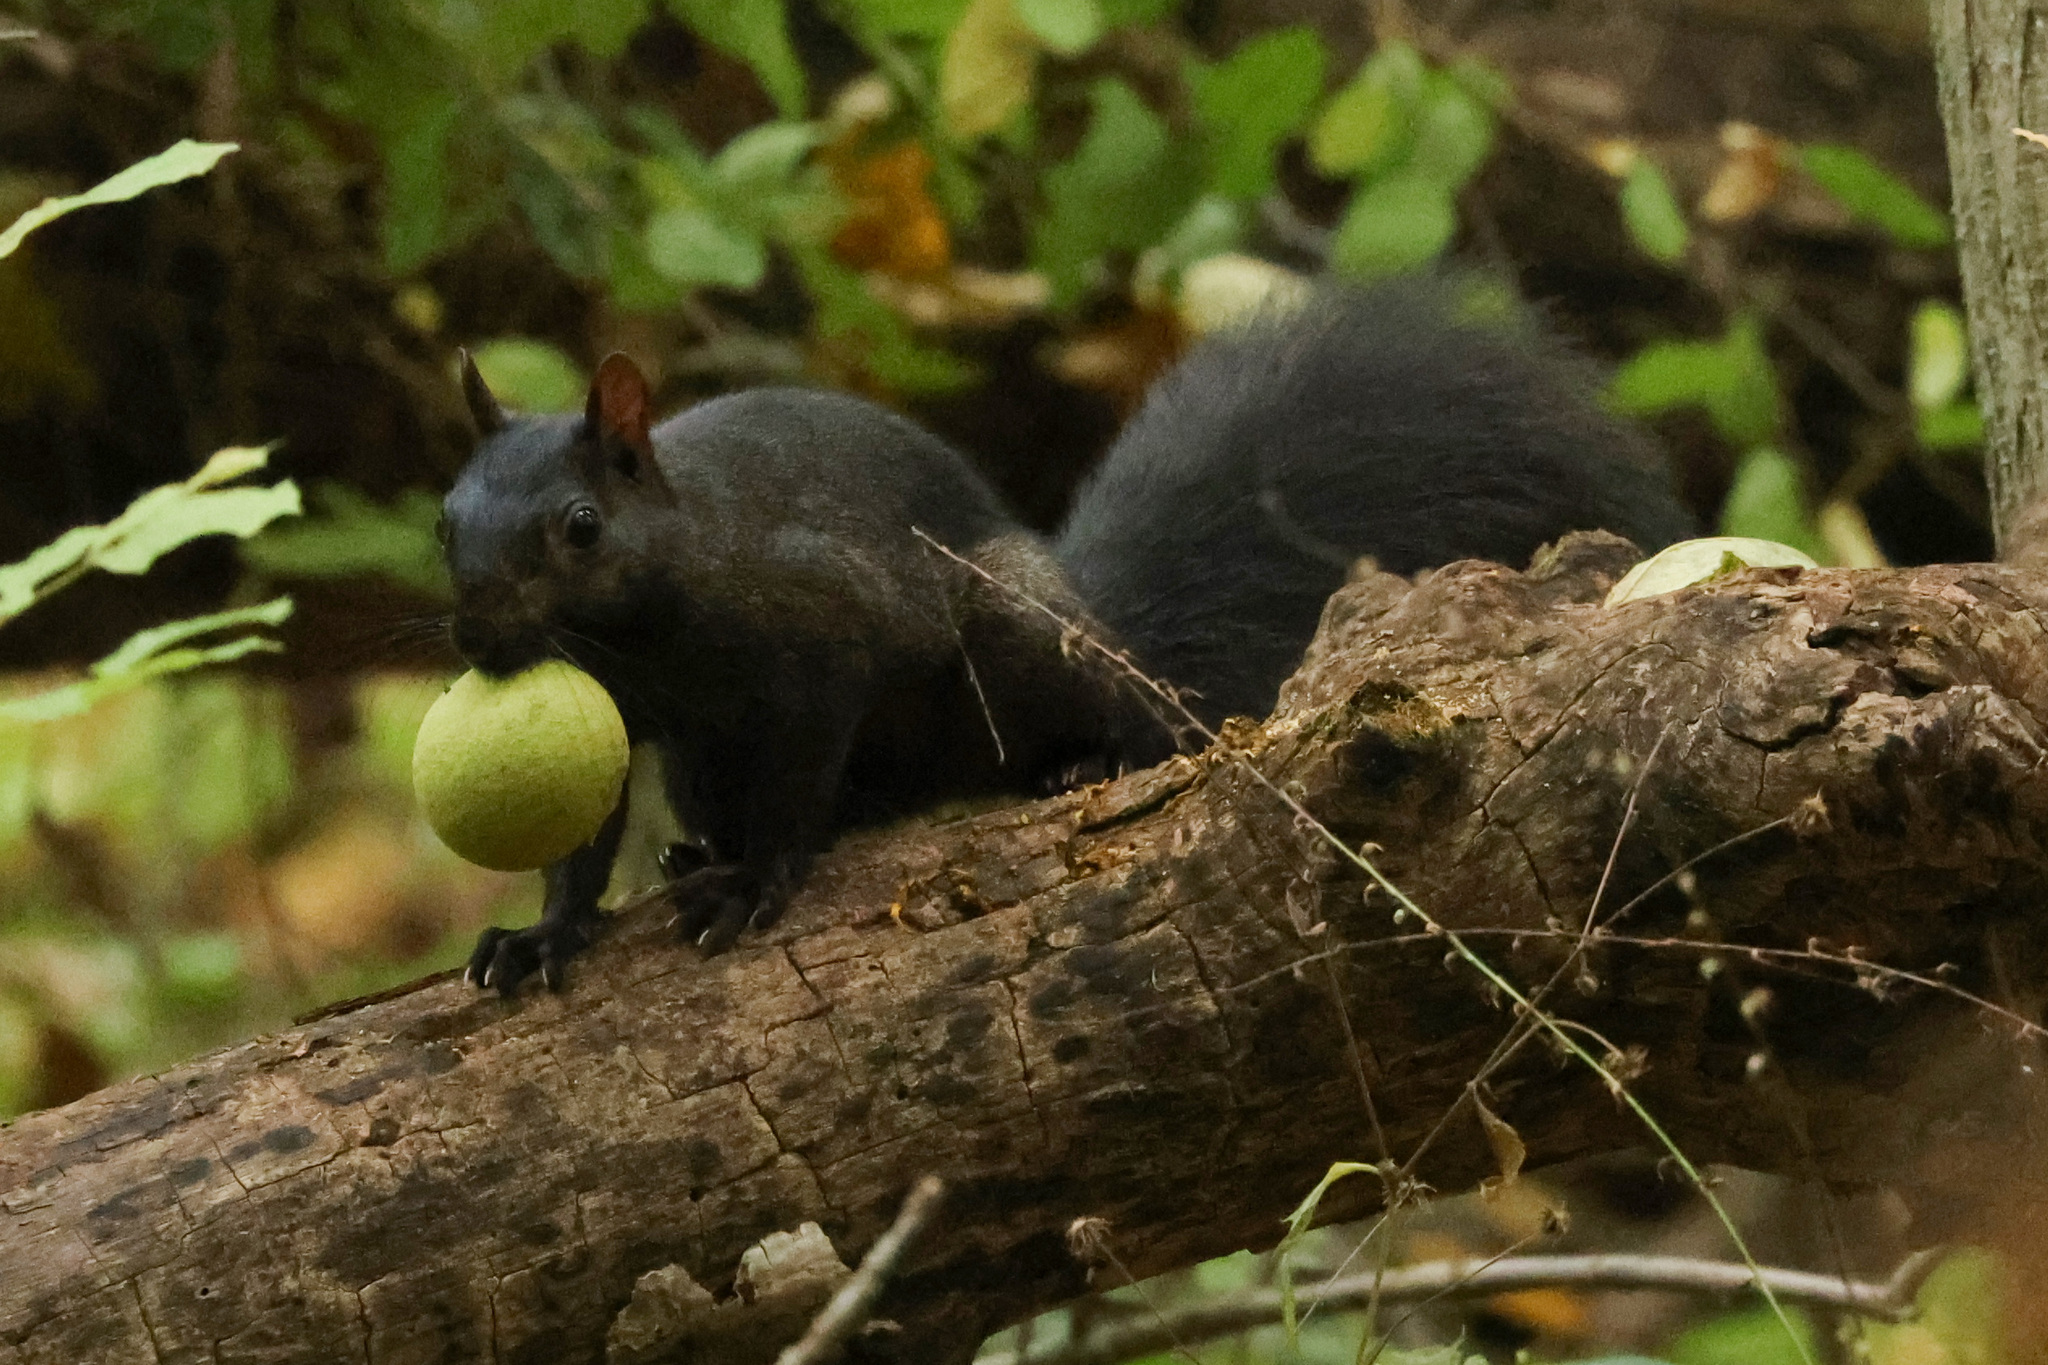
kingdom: Animalia
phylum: Chordata
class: Mammalia
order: Rodentia
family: Sciuridae
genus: Sciurus
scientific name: Sciurus carolinensis
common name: Eastern gray squirrel
